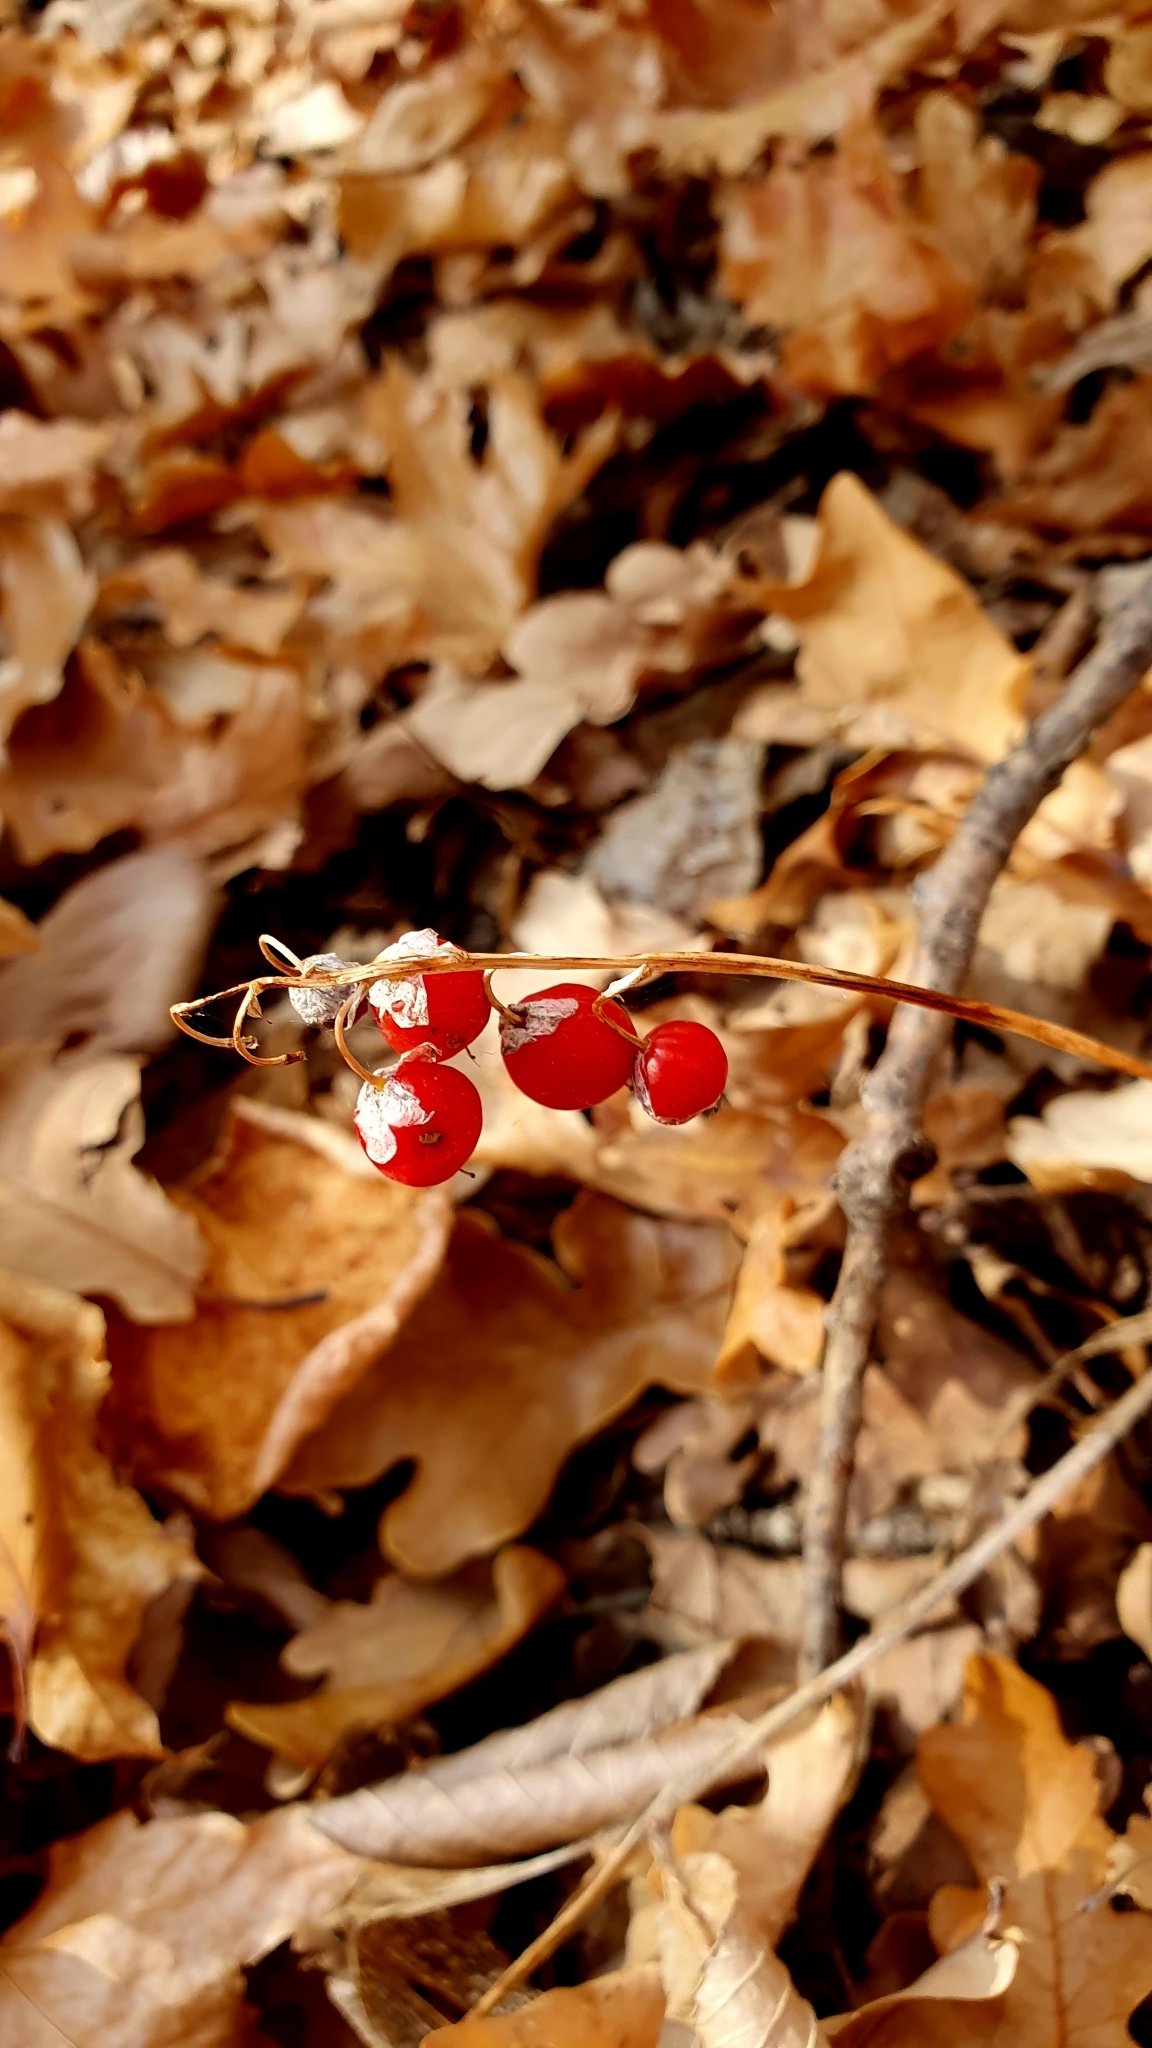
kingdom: Plantae
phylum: Tracheophyta
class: Liliopsida
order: Asparagales
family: Asparagaceae
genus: Convallaria
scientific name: Convallaria majalis
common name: Lily-of-the-valley
